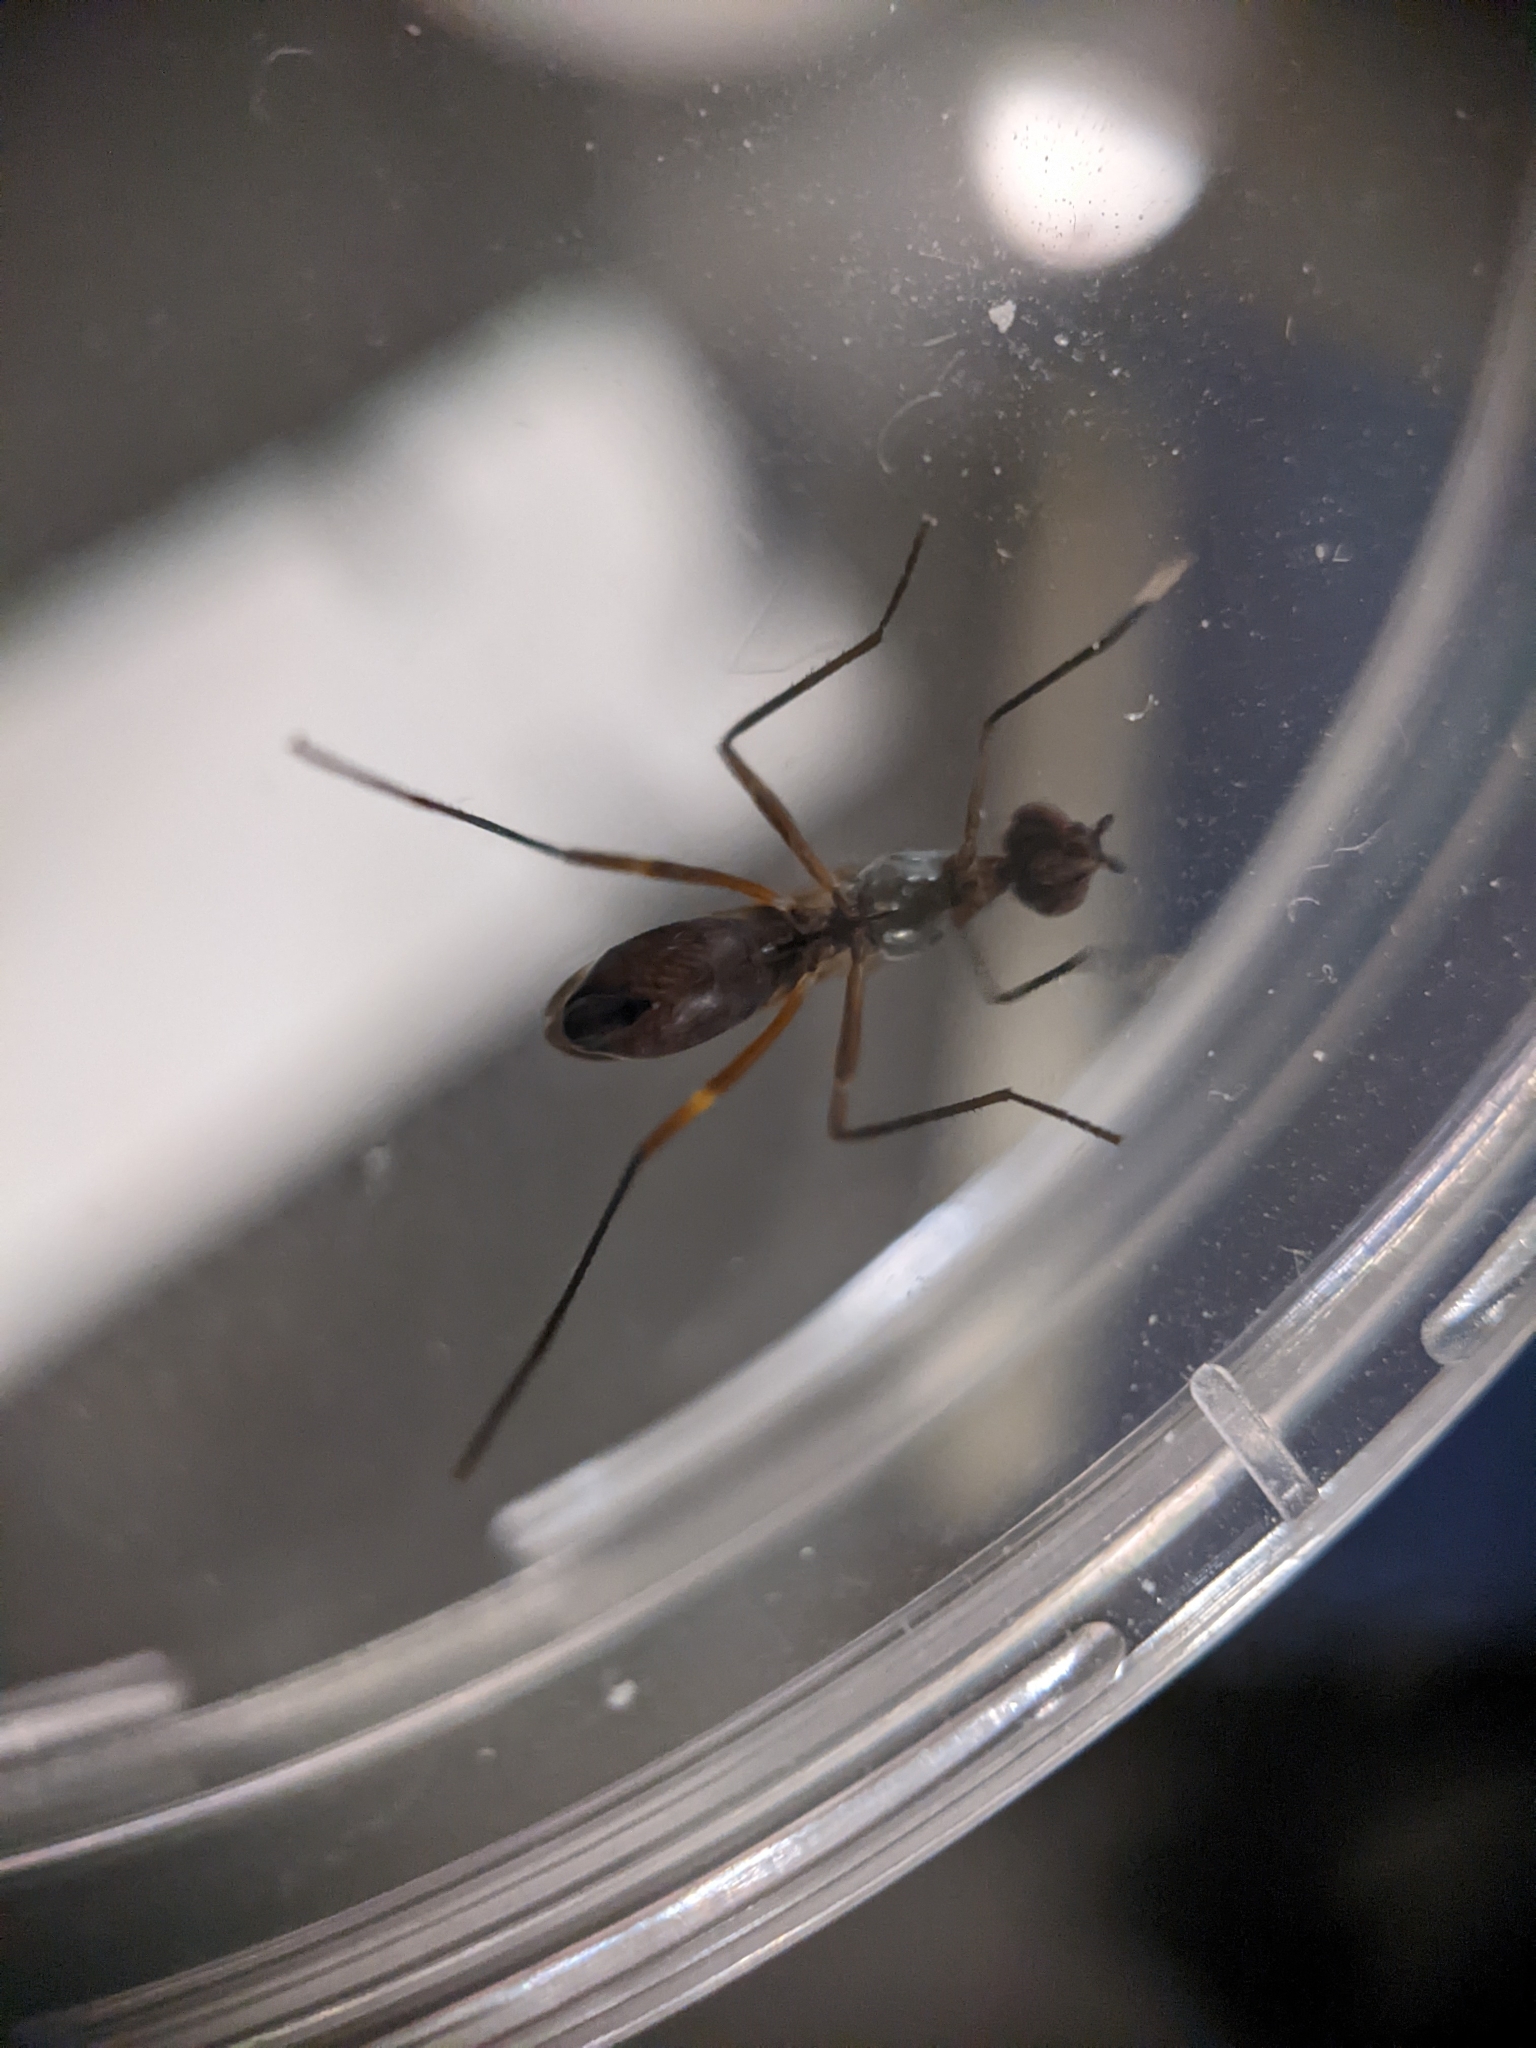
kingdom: Animalia
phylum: Arthropoda
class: Insecta
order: Diptera
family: Micropezidae
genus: Taeniaptera
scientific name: Taeniaptera trivittata
